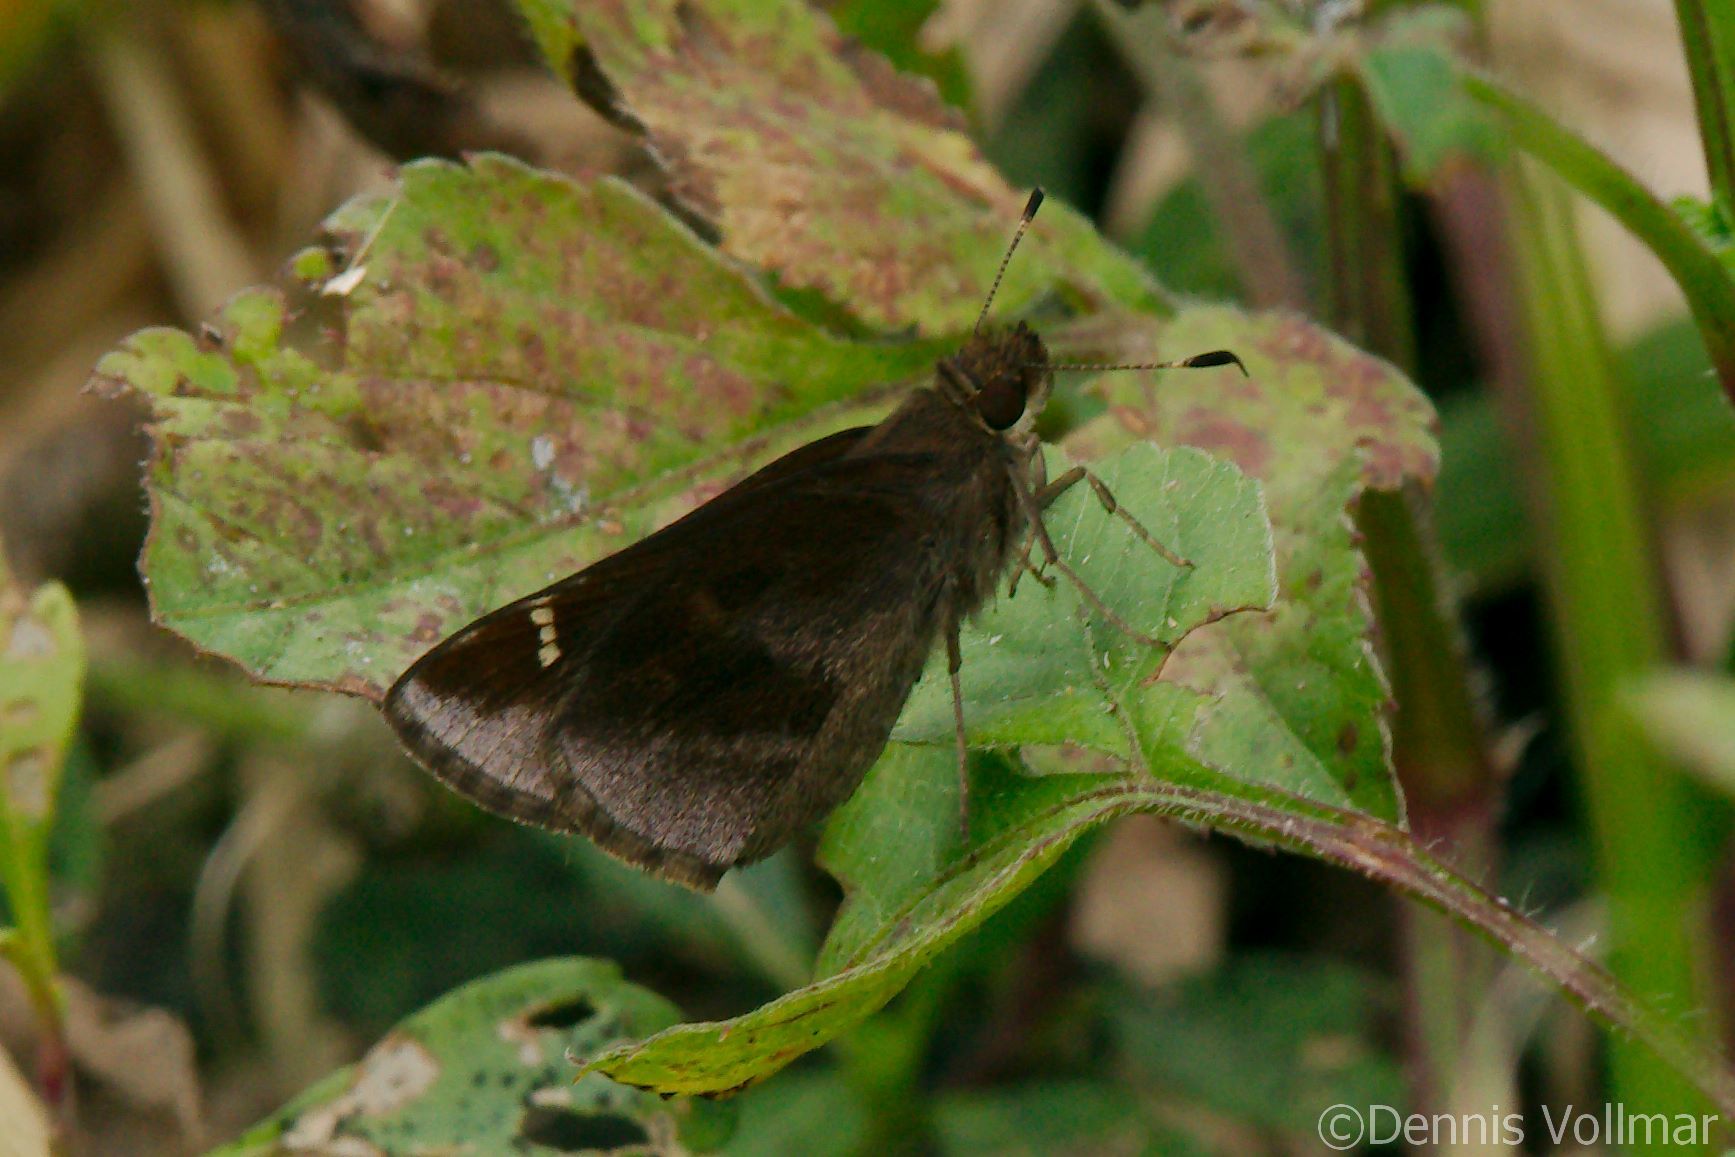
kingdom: Animalia
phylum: Arthropoda
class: Insecta
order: Lepidoptera
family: Hesperiidae
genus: Lerema
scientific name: Lerema accius
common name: Clouded skipper
